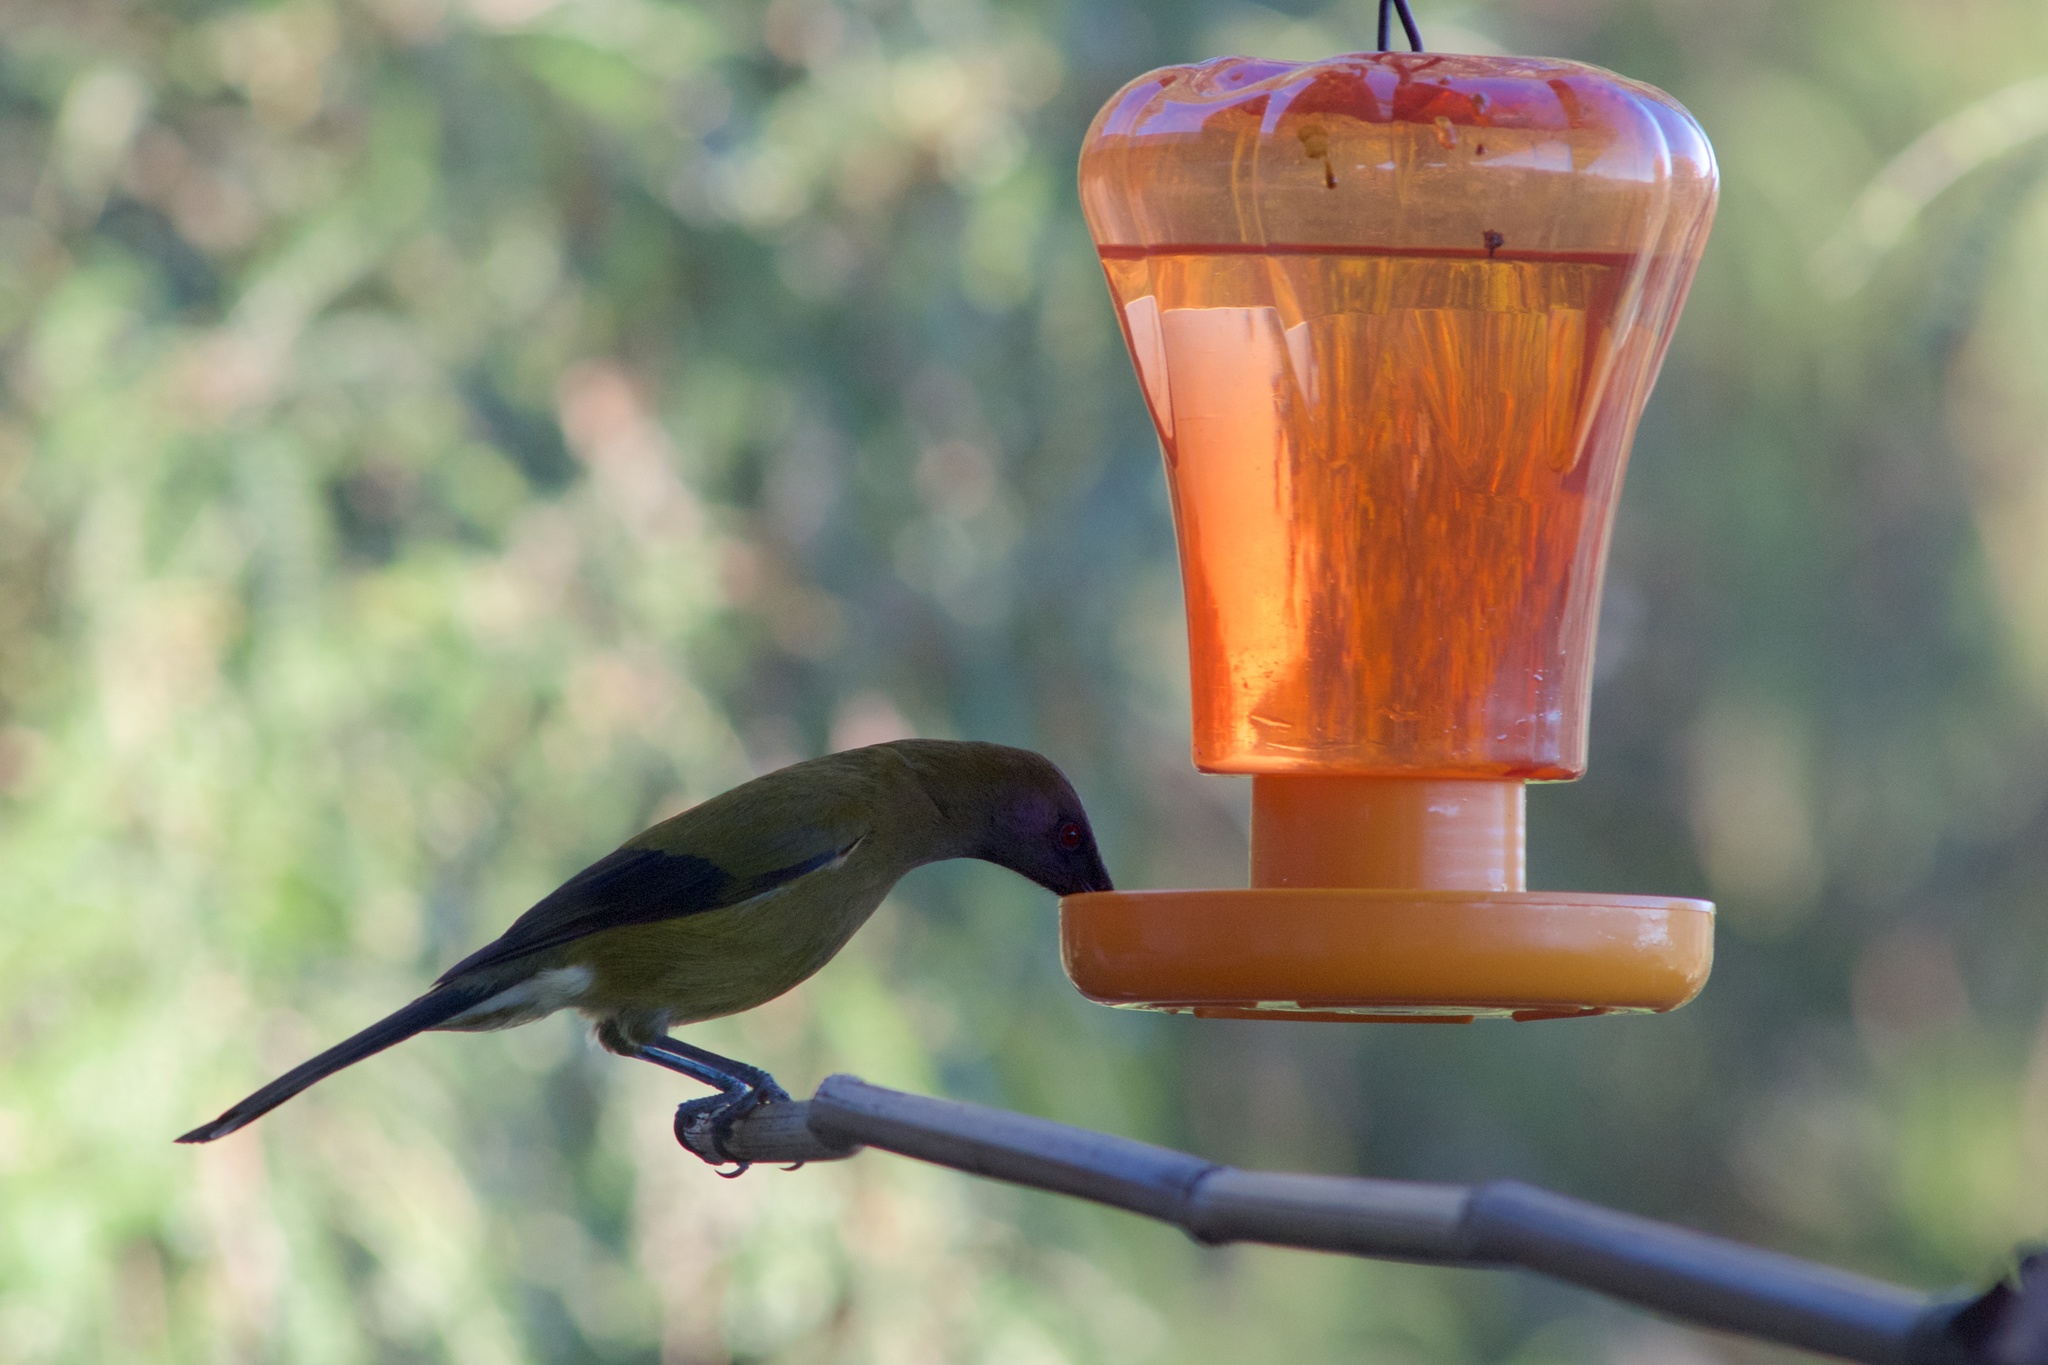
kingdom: Animalia
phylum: Chordata
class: Aves
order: Passeriformes
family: Meliphagidae
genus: Anthornis
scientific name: Anthornis melanura
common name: New zealand bellbird
